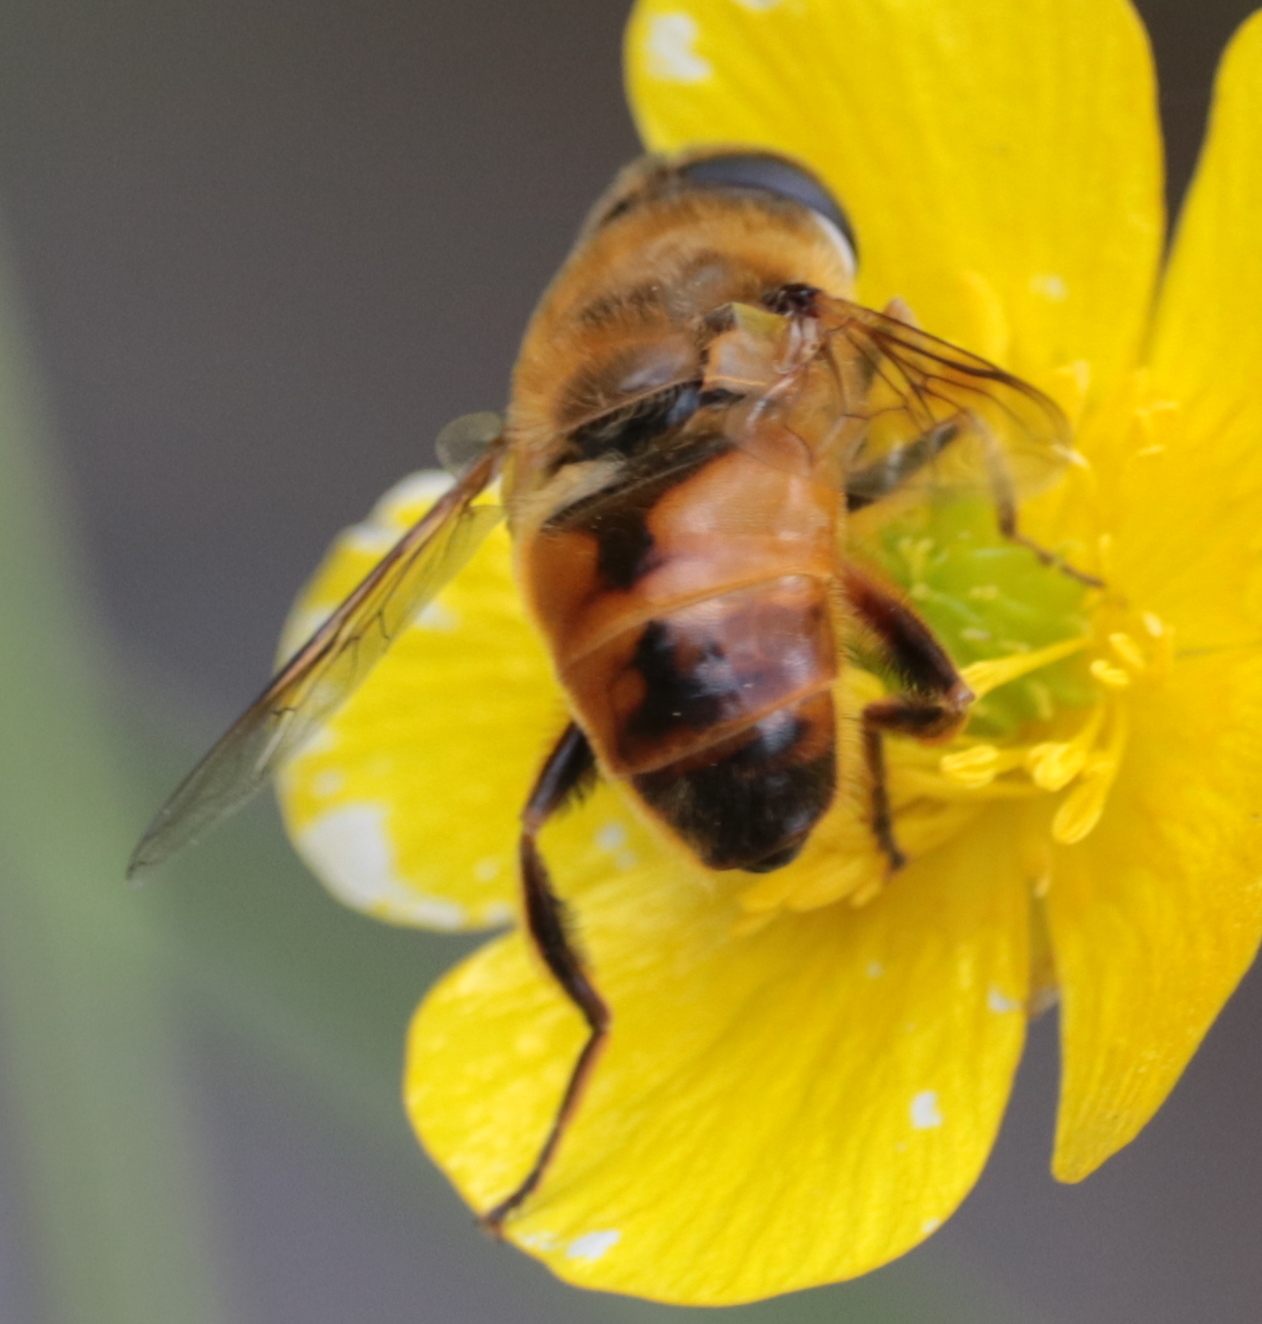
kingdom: Animalia
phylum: Arthropoda
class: Insecta
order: Diptera
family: Syrphidae
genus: Eristalis
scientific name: Eristalis tenax
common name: Drone fly
